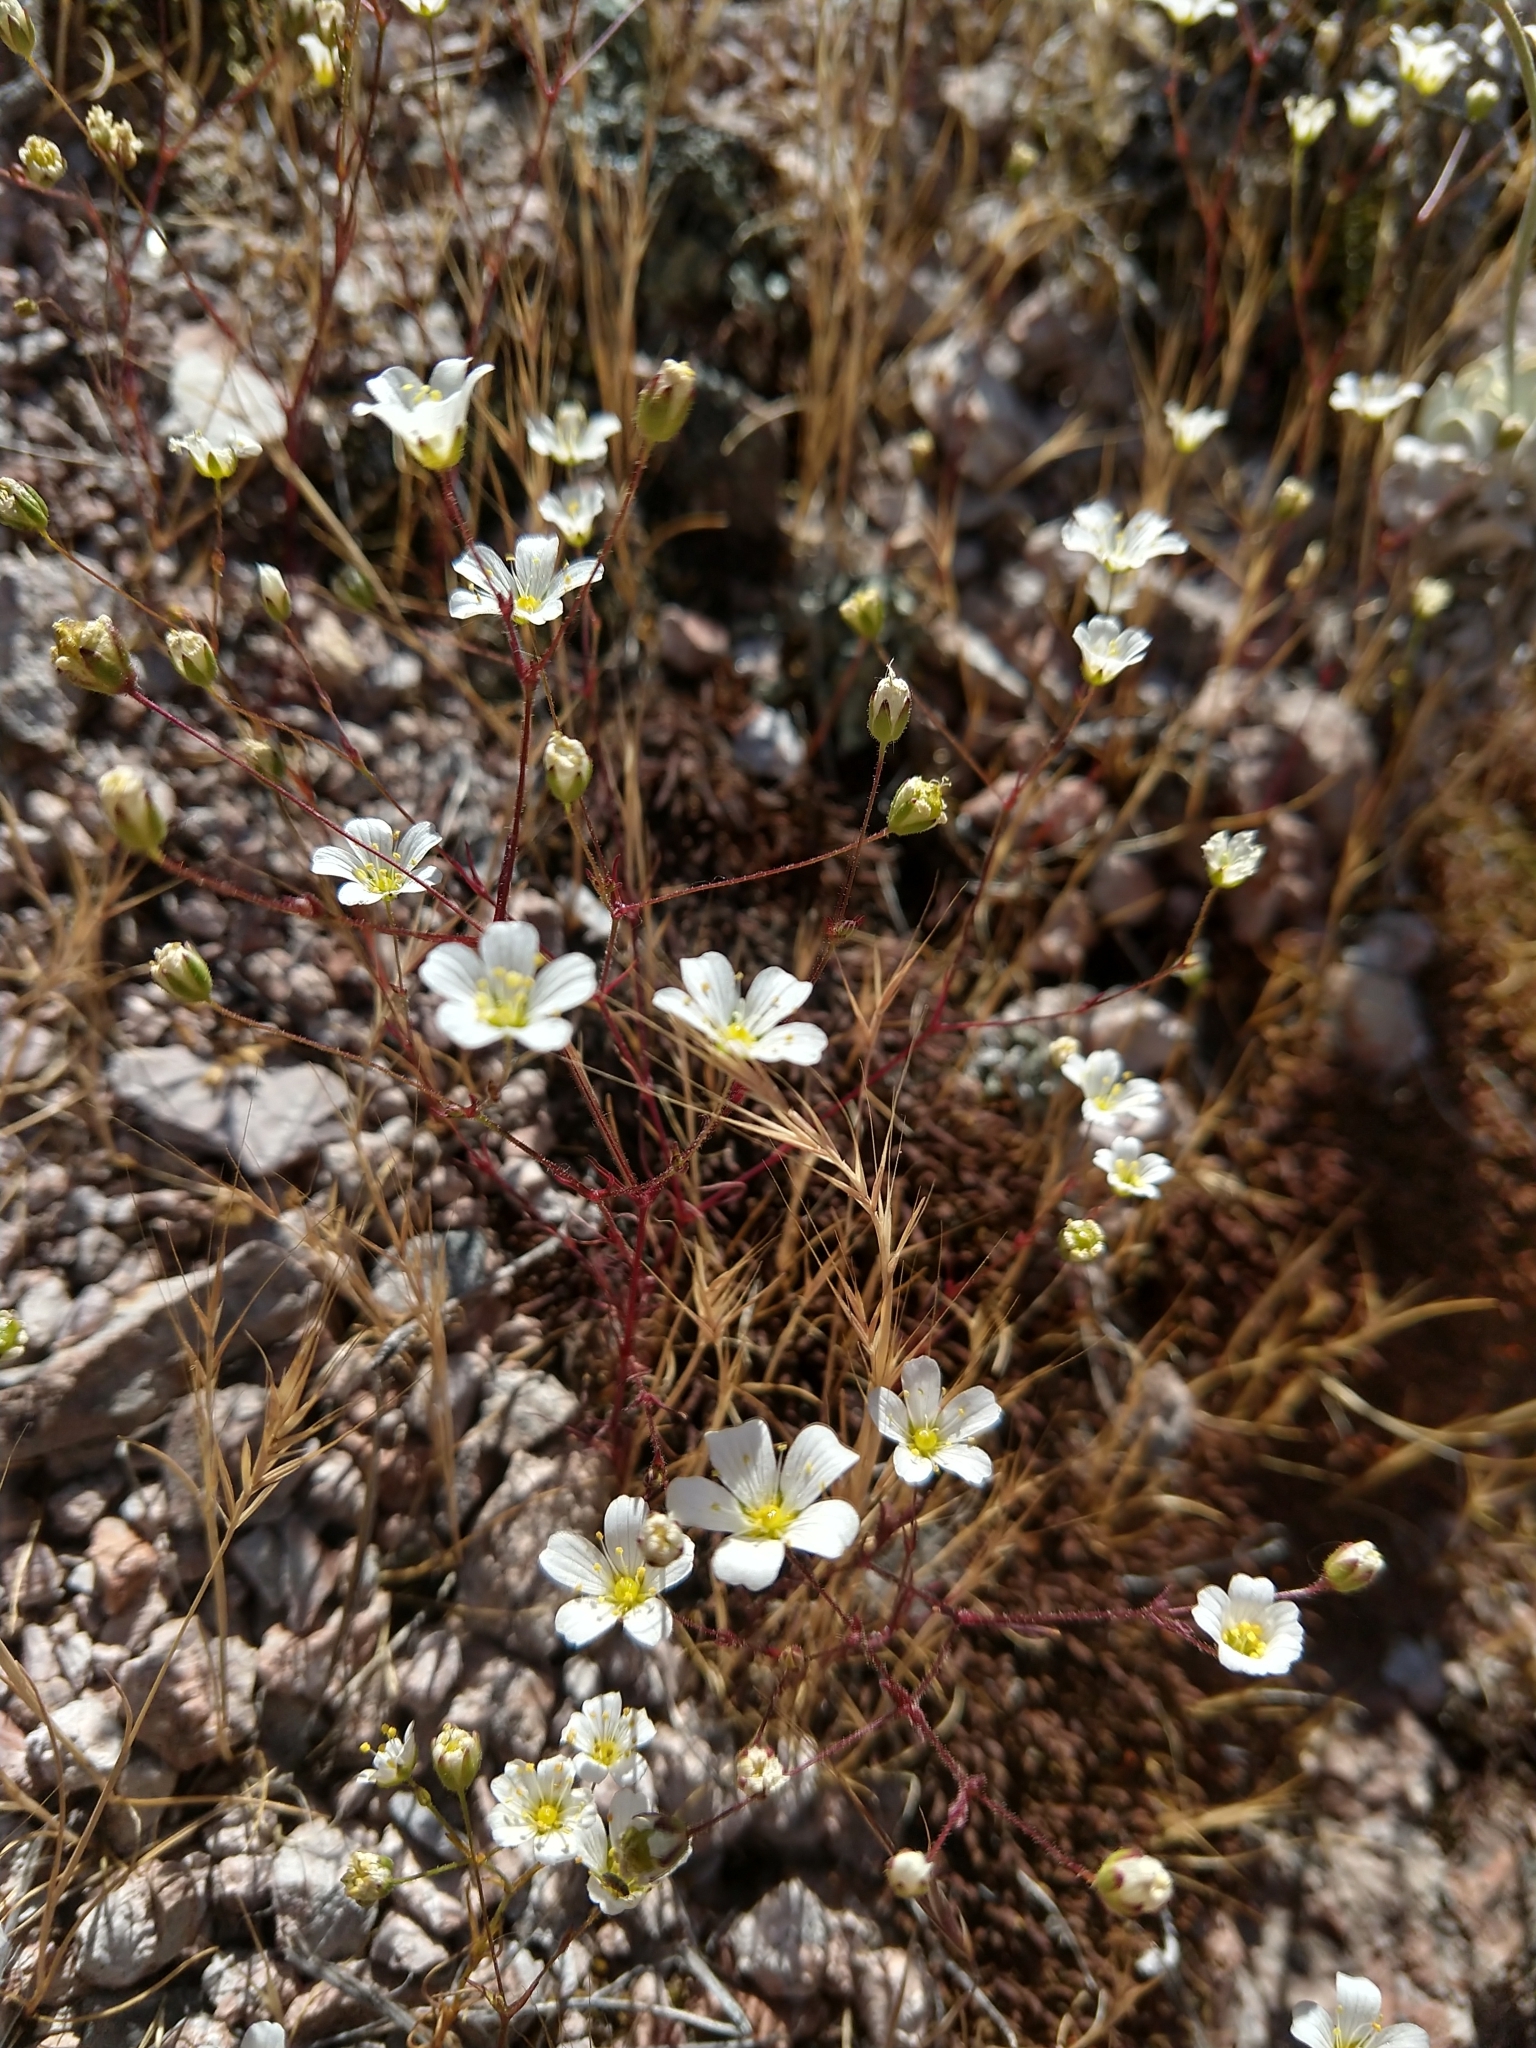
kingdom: Plantae
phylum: Tracheophyta
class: Magnoliopsida
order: Caryophyllales
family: Caryophyllaceae
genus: Sabulina
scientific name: Sabulina douglasii
